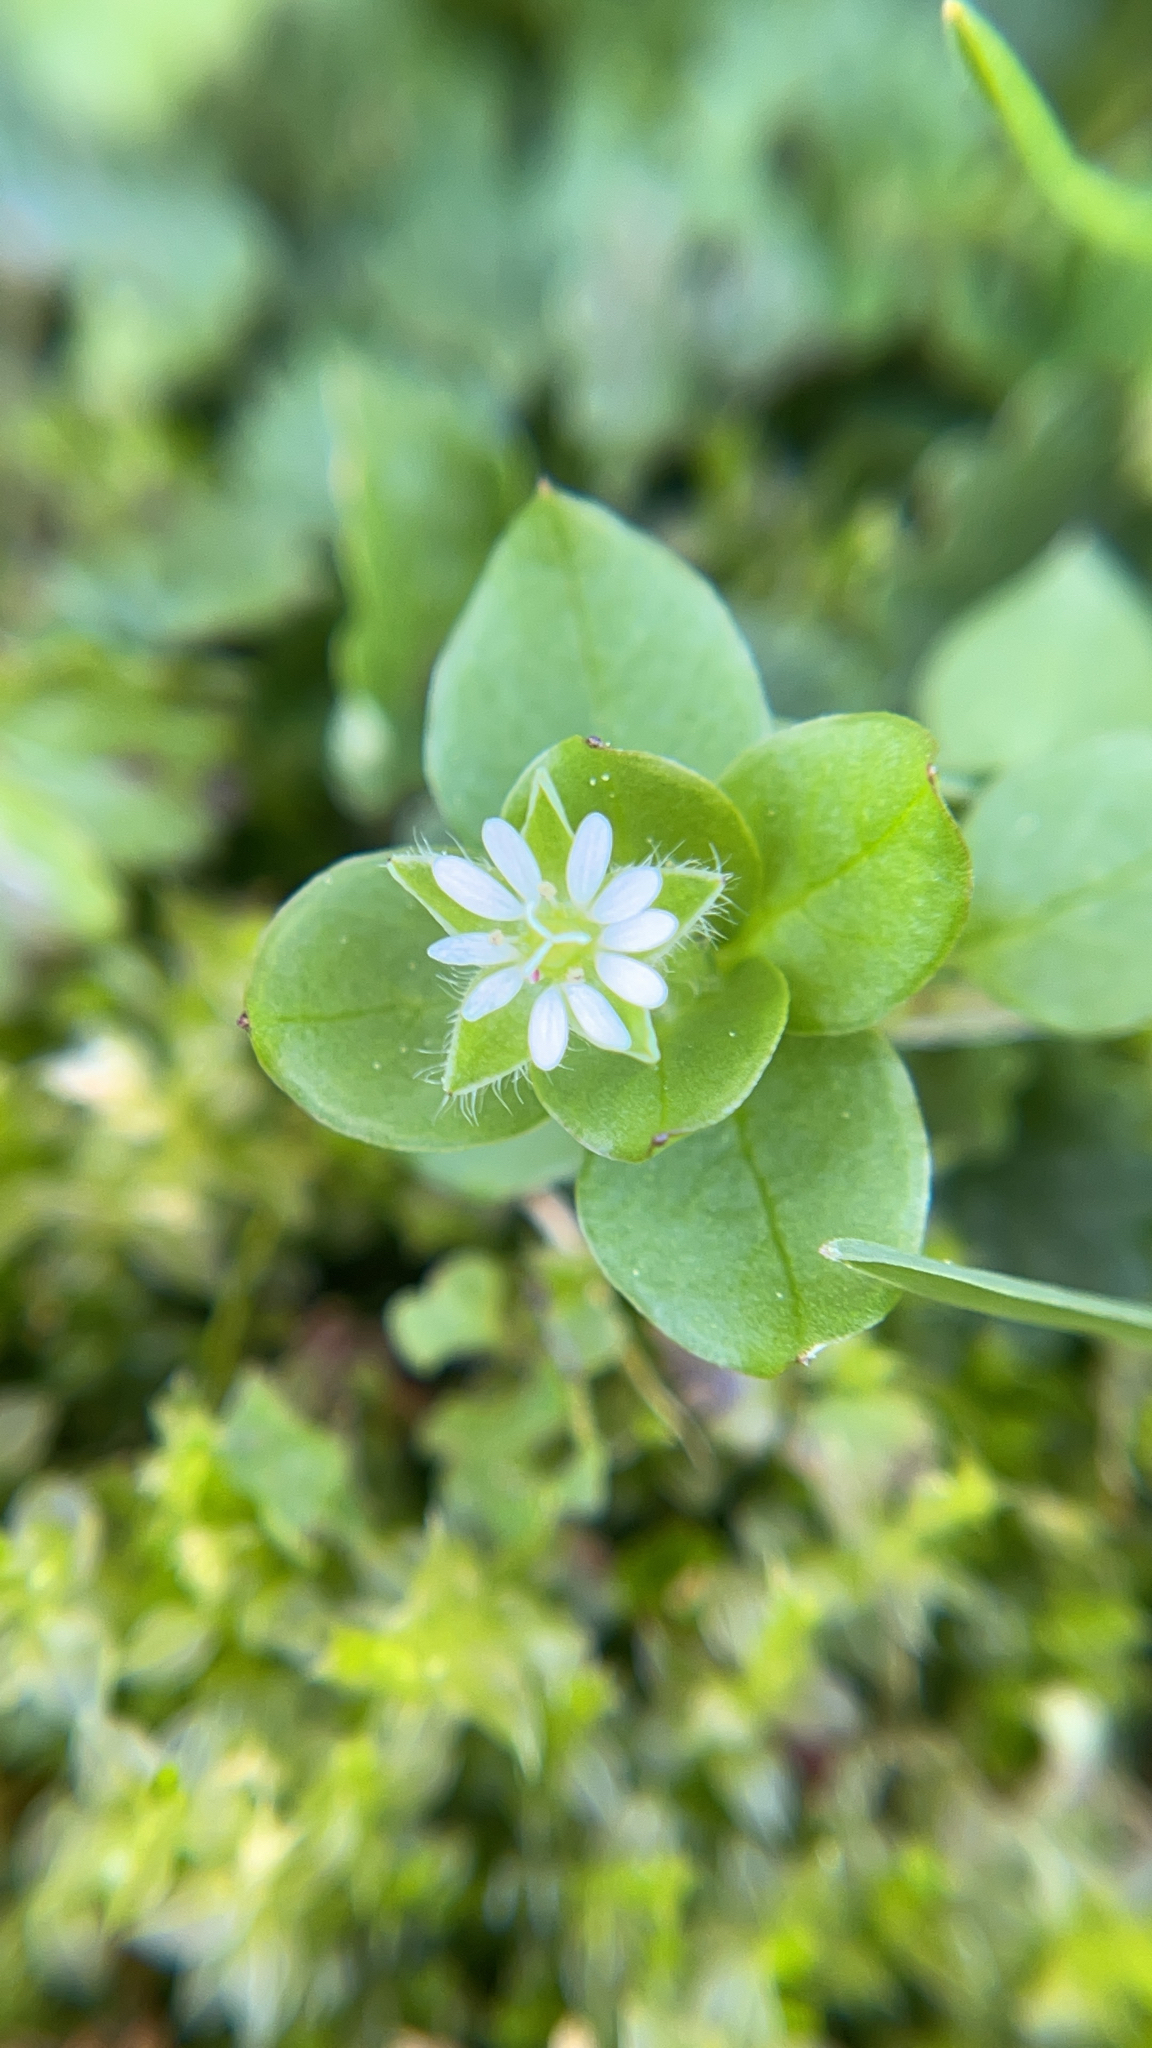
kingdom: Plantae
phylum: Tracheophyta
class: Magnoliopsida
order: Caryophyllales
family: Caryophyllaceae
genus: Stellaria
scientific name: Stellaria media
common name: Common chickweed
